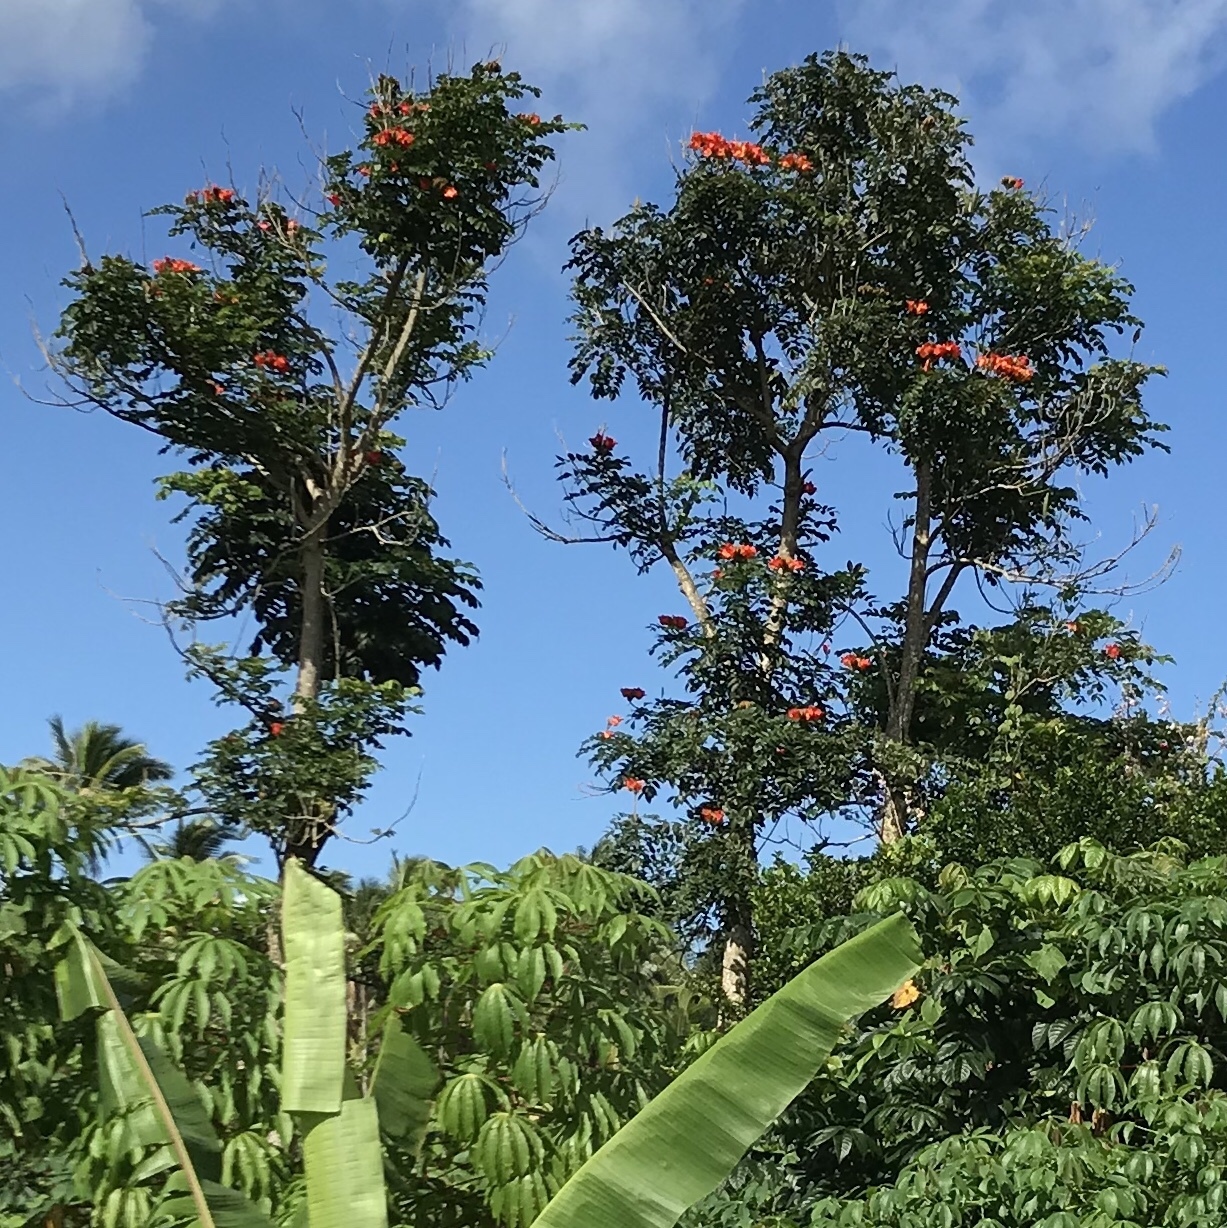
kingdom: Plantae
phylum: Tracheophyta
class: Magnoliopsida
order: Lamiales
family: Bignoniaceae
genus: Spathodea
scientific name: Spathodea campanulata
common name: African tuliptree
